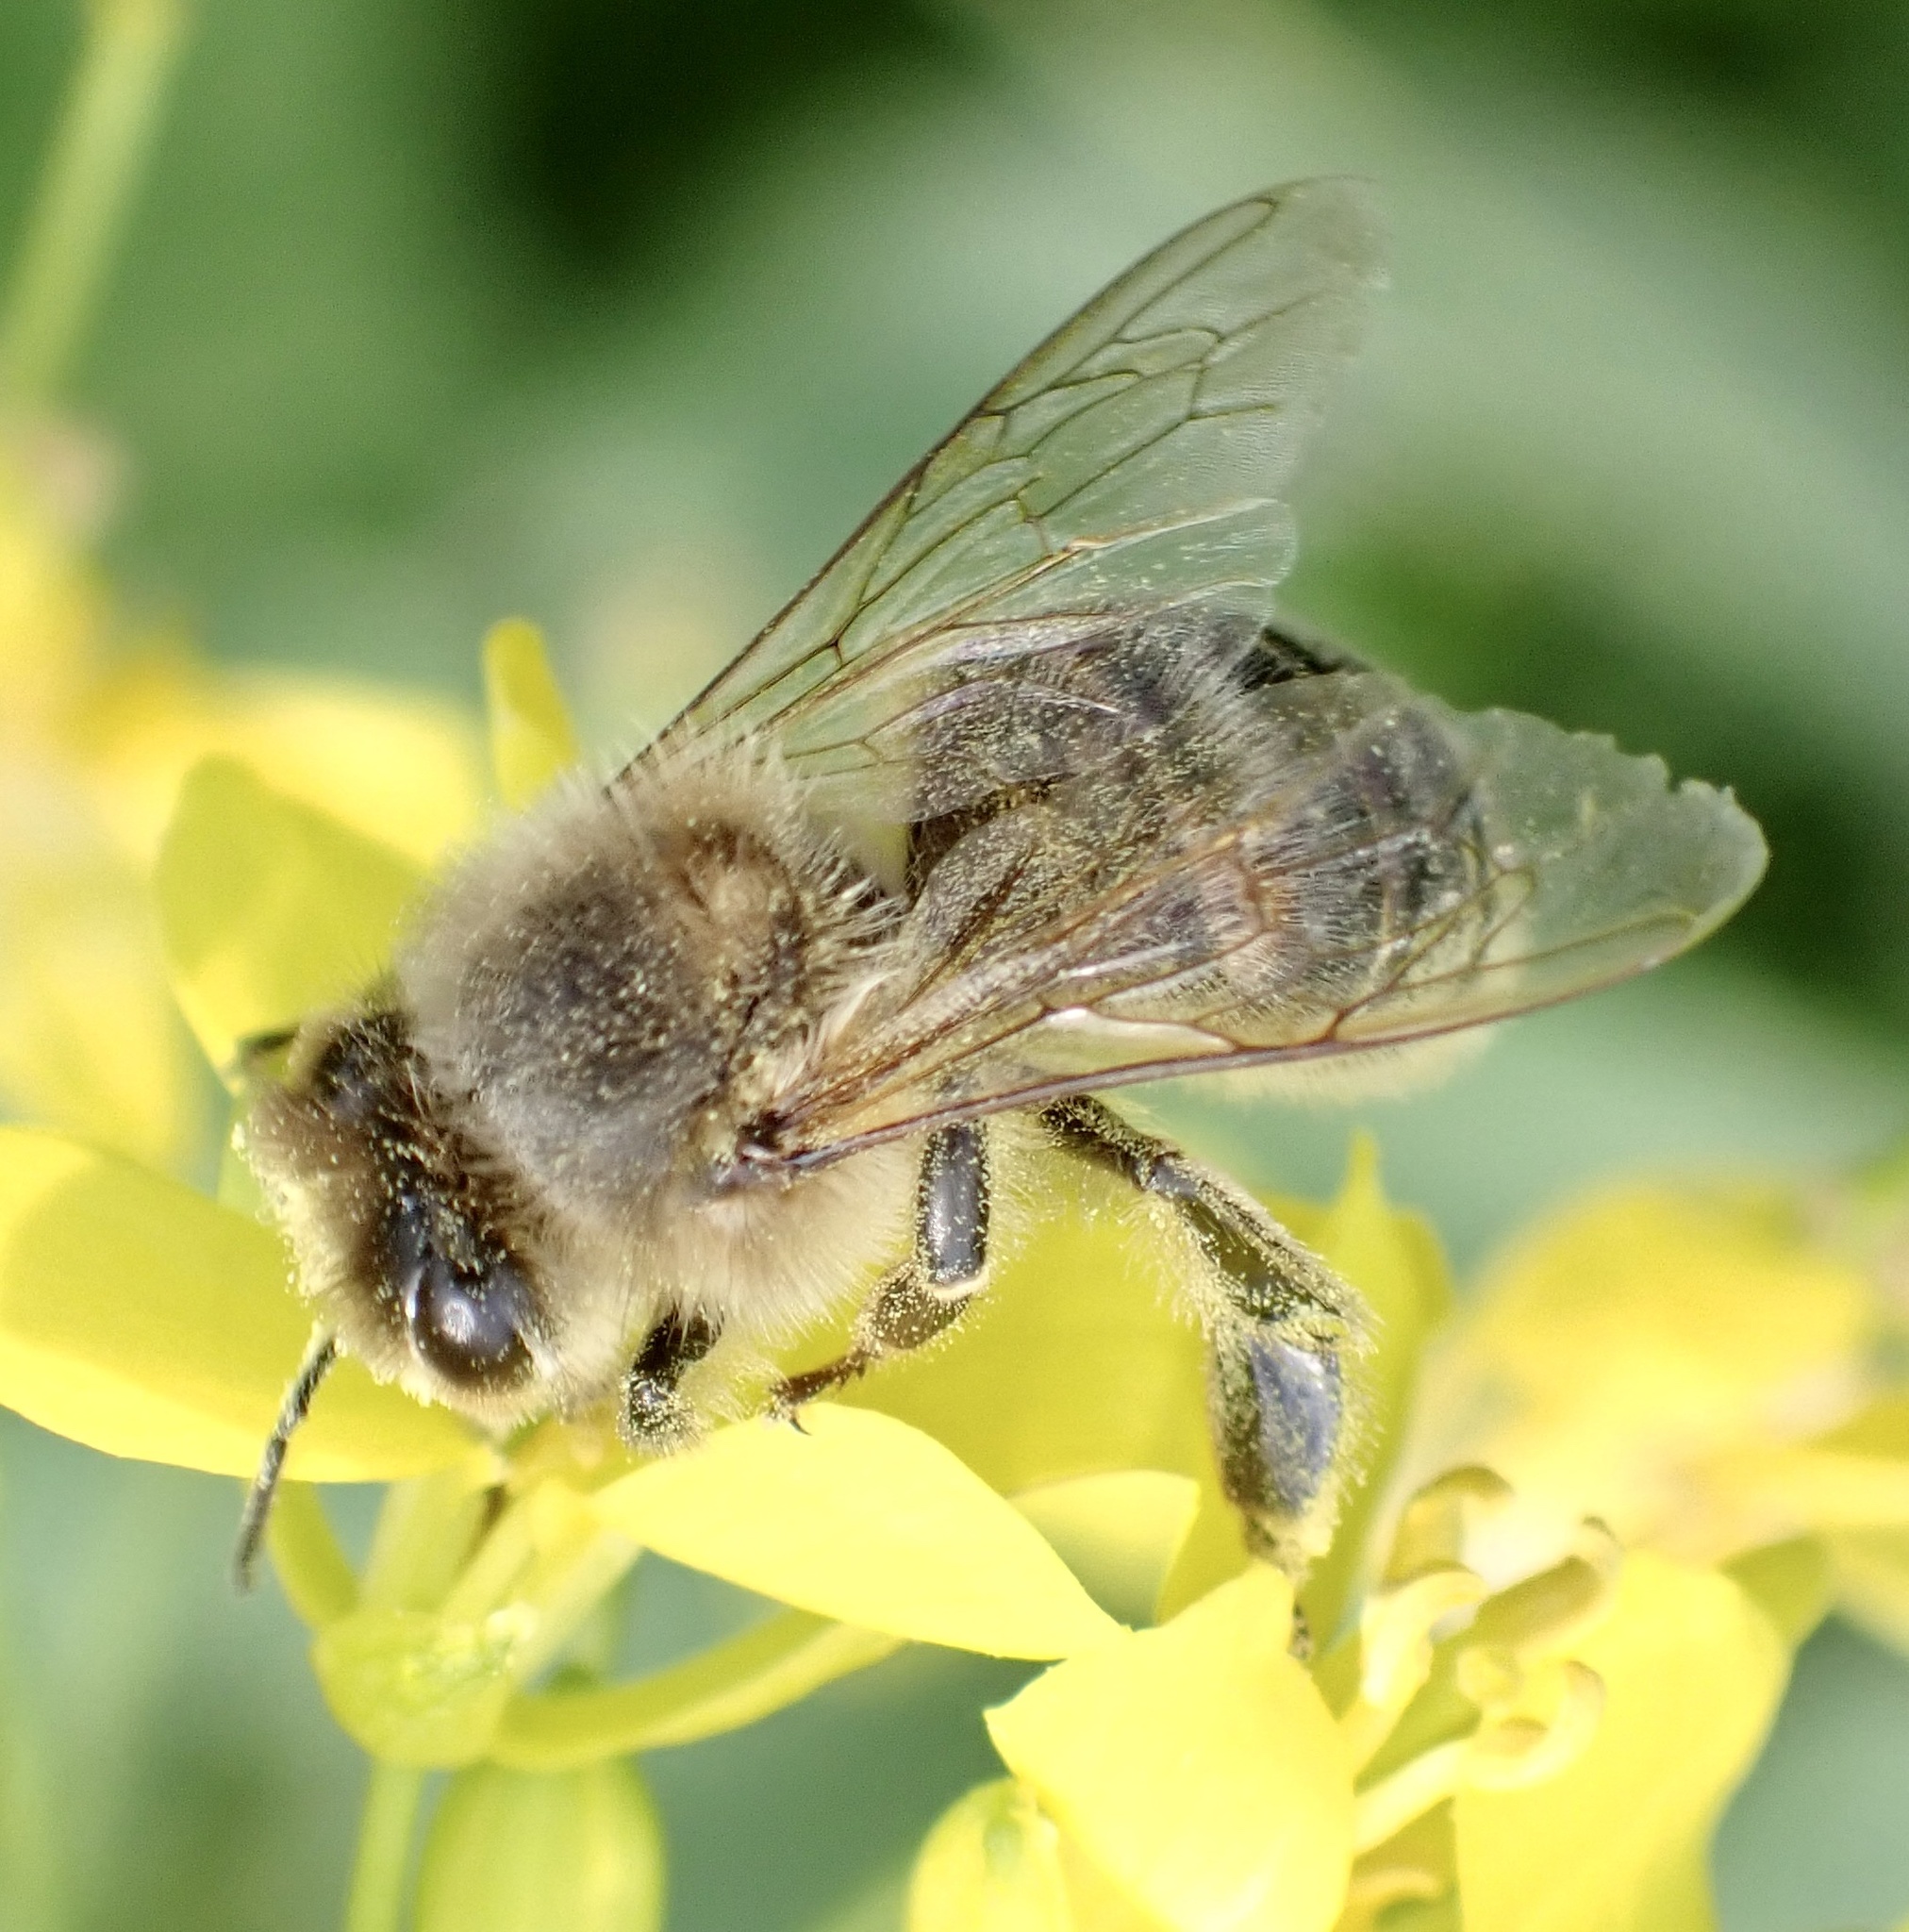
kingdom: Animalia
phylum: Arthropoda
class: Insecta
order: Hymenoptera
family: Apidae
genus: Apis
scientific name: Apis mellifera
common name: Honey bee
